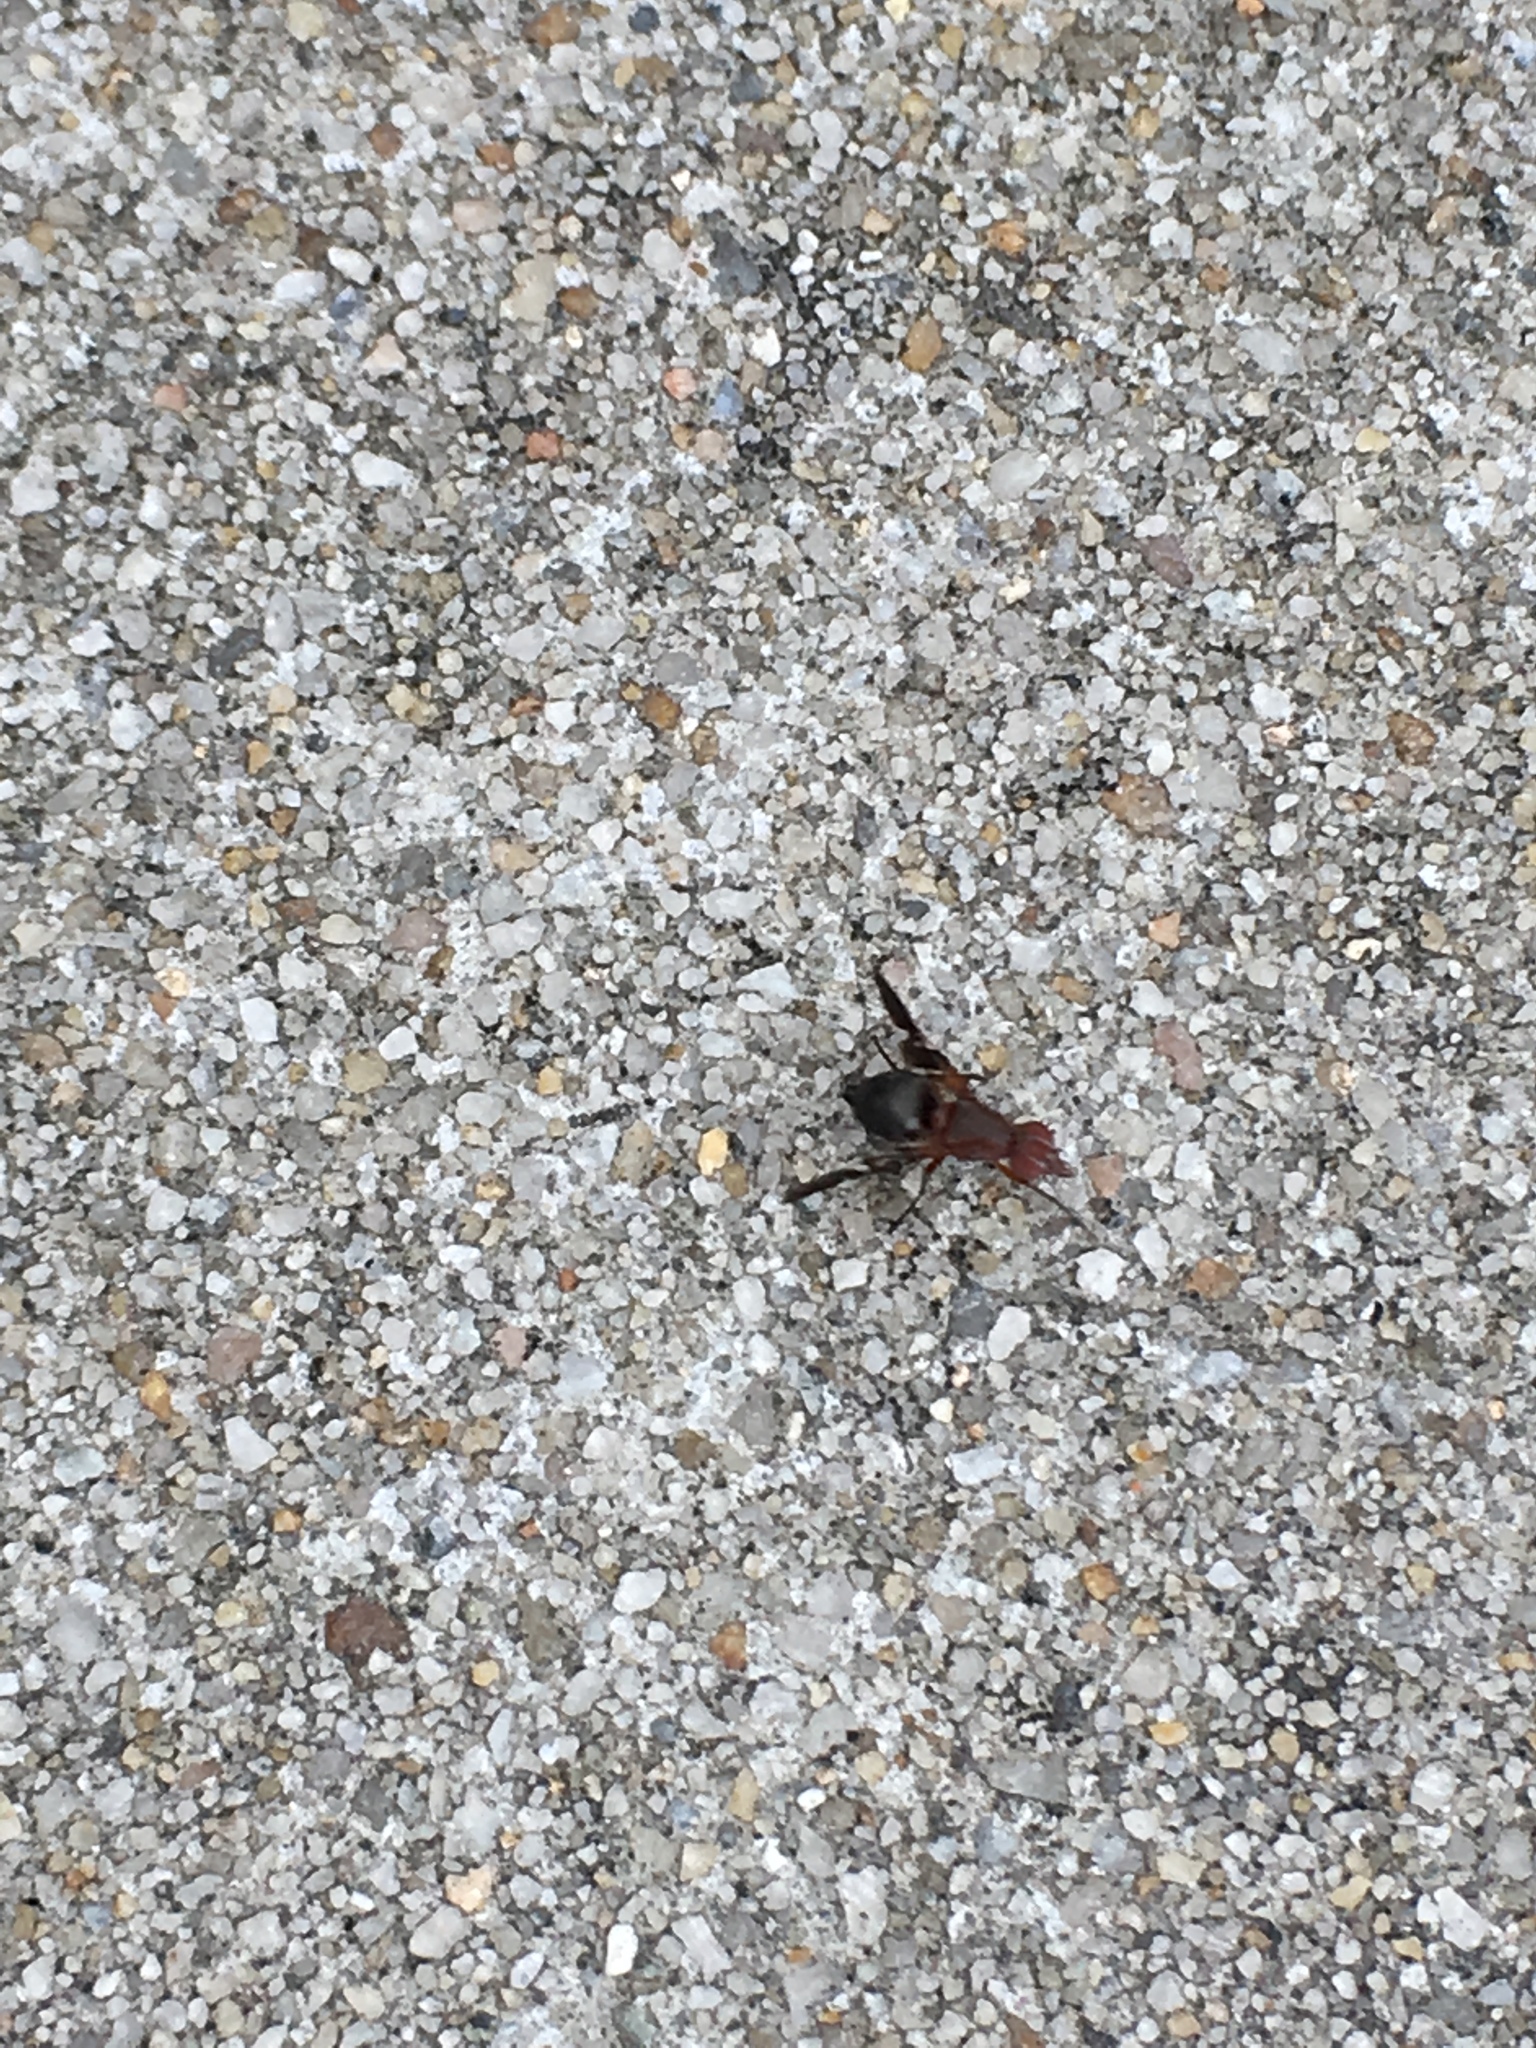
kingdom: Animalia
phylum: Arthropoda
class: Insecta
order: Diptera
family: Ulidiidae
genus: Delphinia
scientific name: Delphinia picta
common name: Common picture-winged fly
